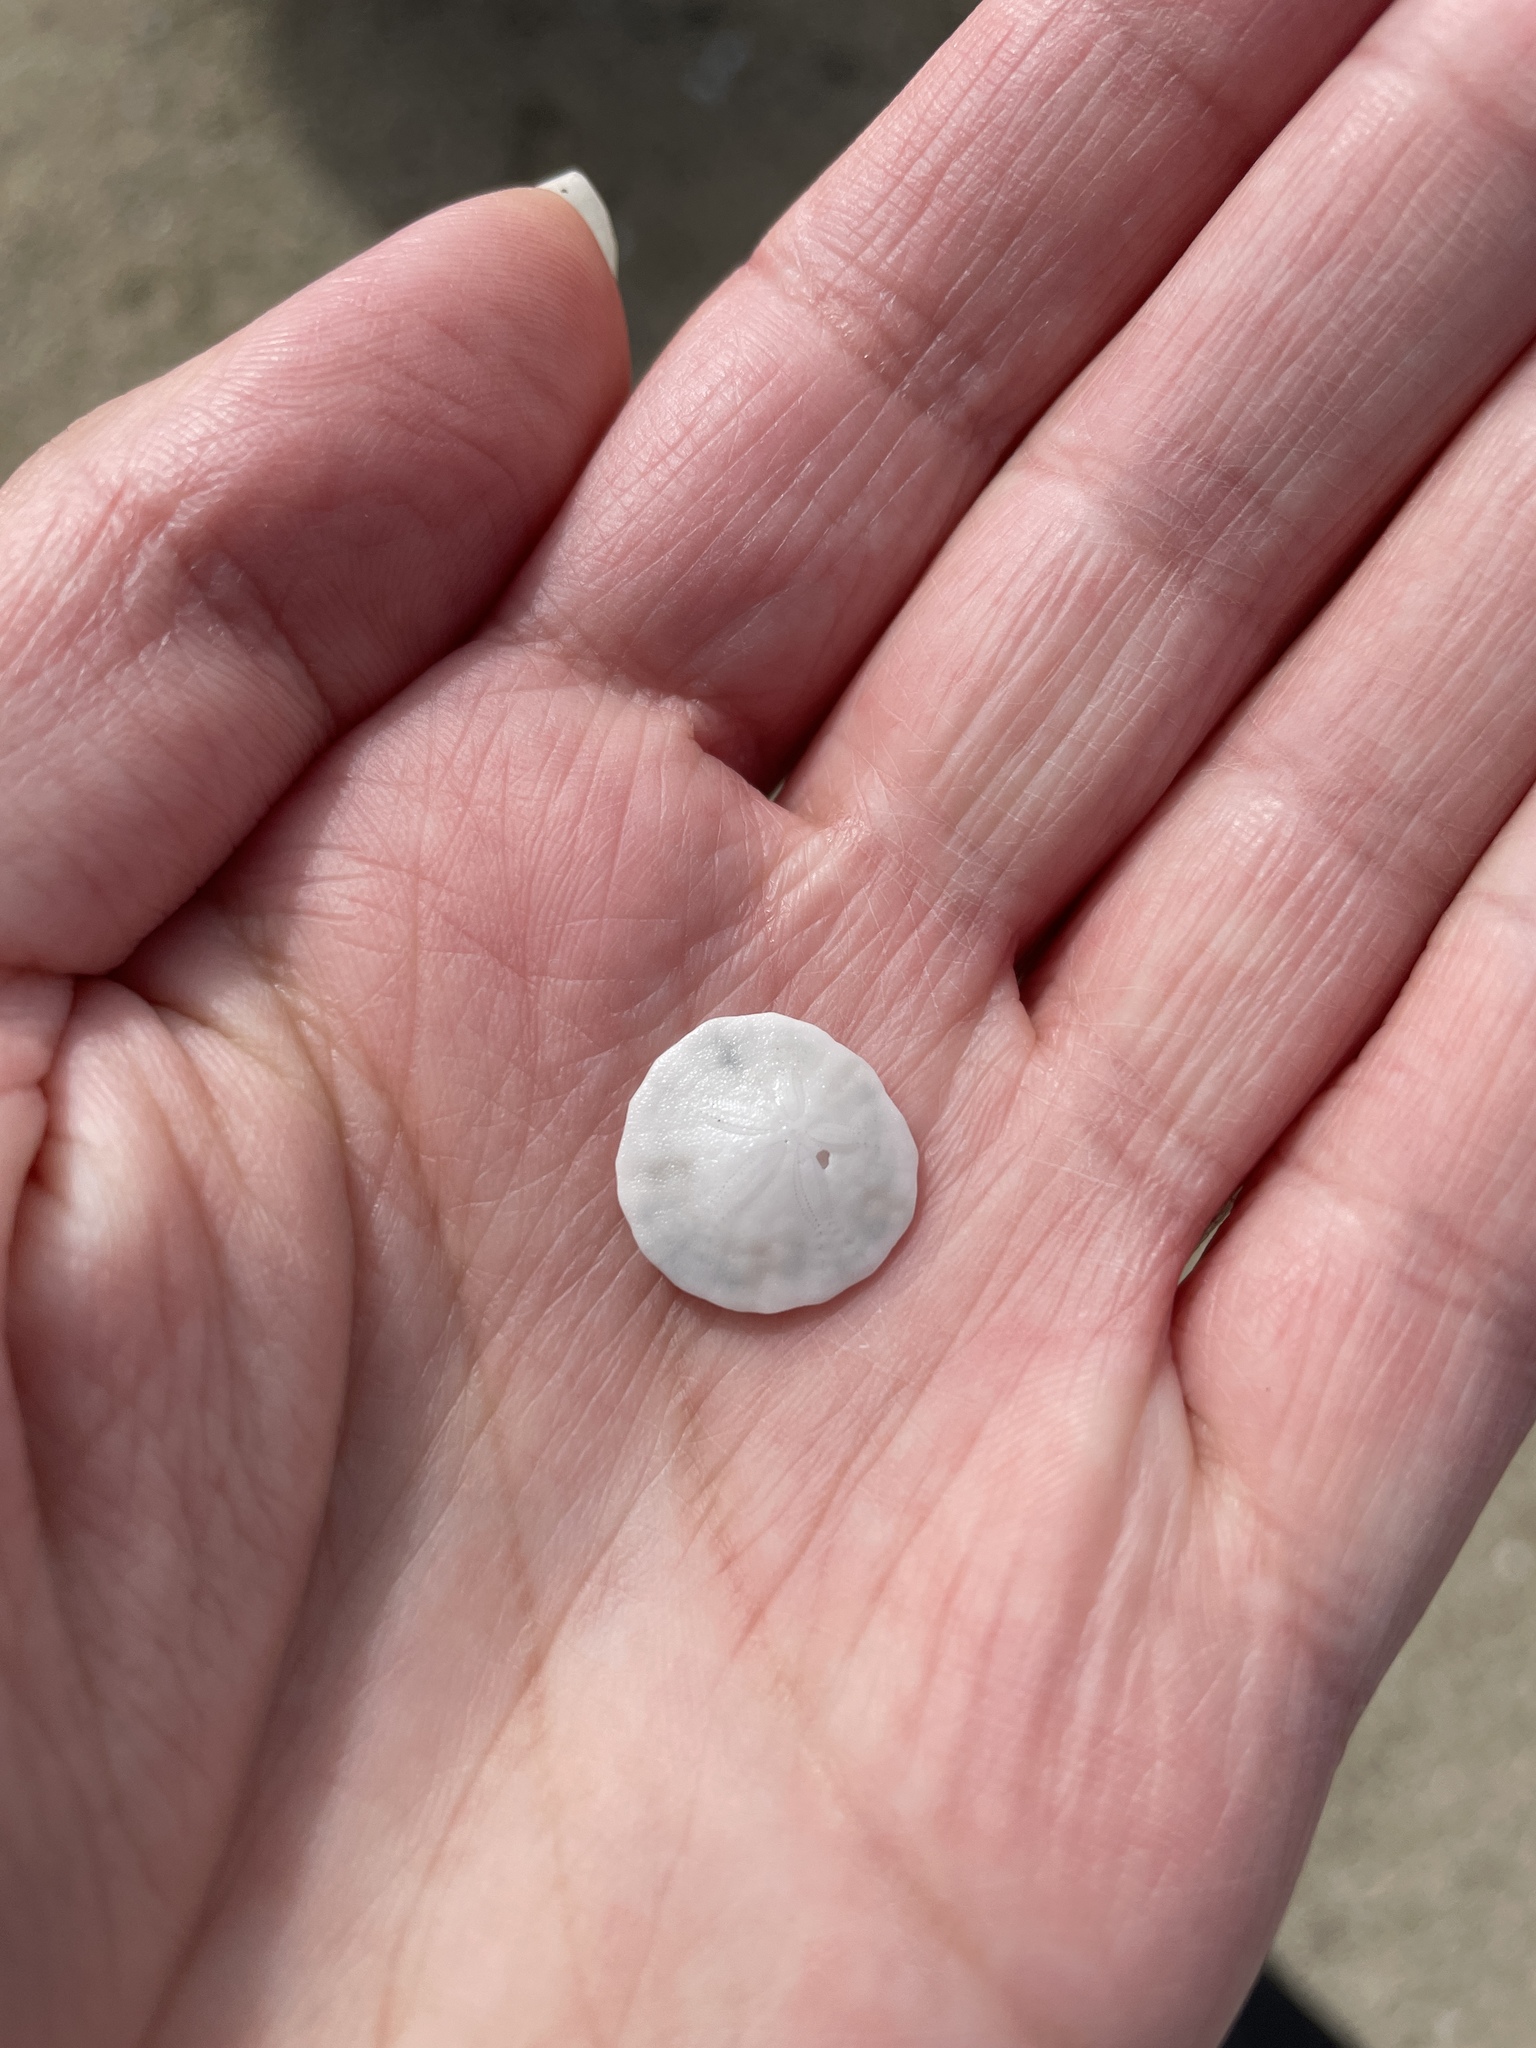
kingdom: Animalia
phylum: Echinodermata
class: Echinoidea
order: Echinolampadacea
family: Dendrasteridae
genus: Dendraster
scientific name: Dendraster excentricus
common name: Eccentric sand dollar sea urchin
